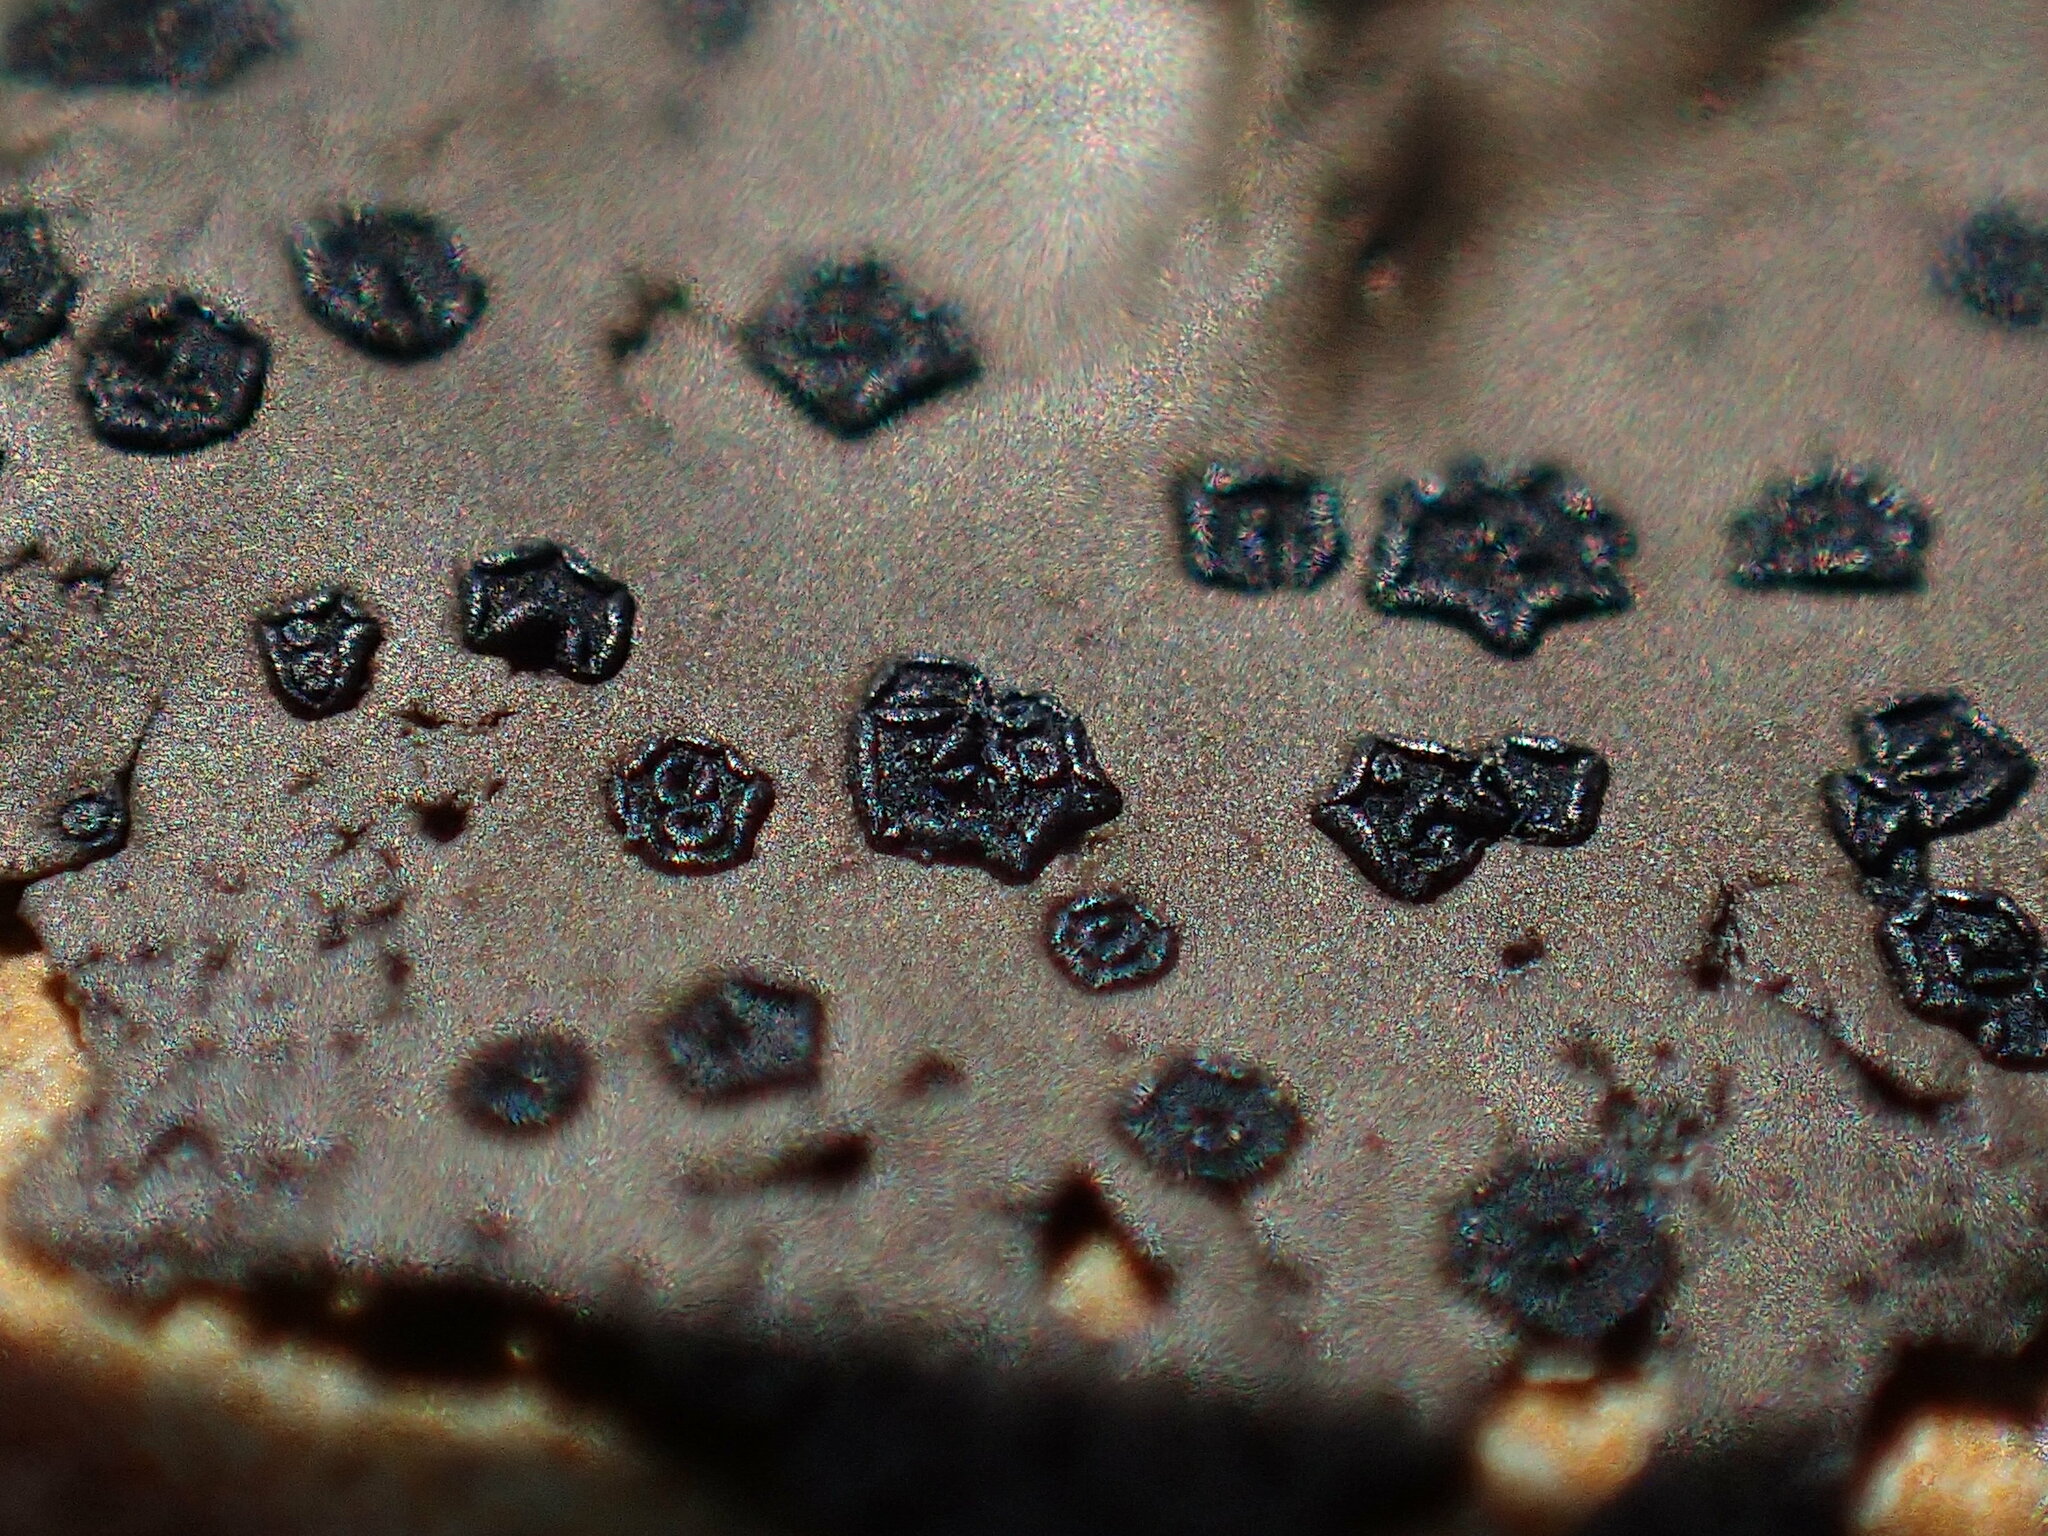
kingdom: Fungi
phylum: Ascomycota
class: Lecanoromycetes
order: Umbilicariales
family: Umbilicariaceae
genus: Umbilicaria
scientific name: Umbilicaria phaea
